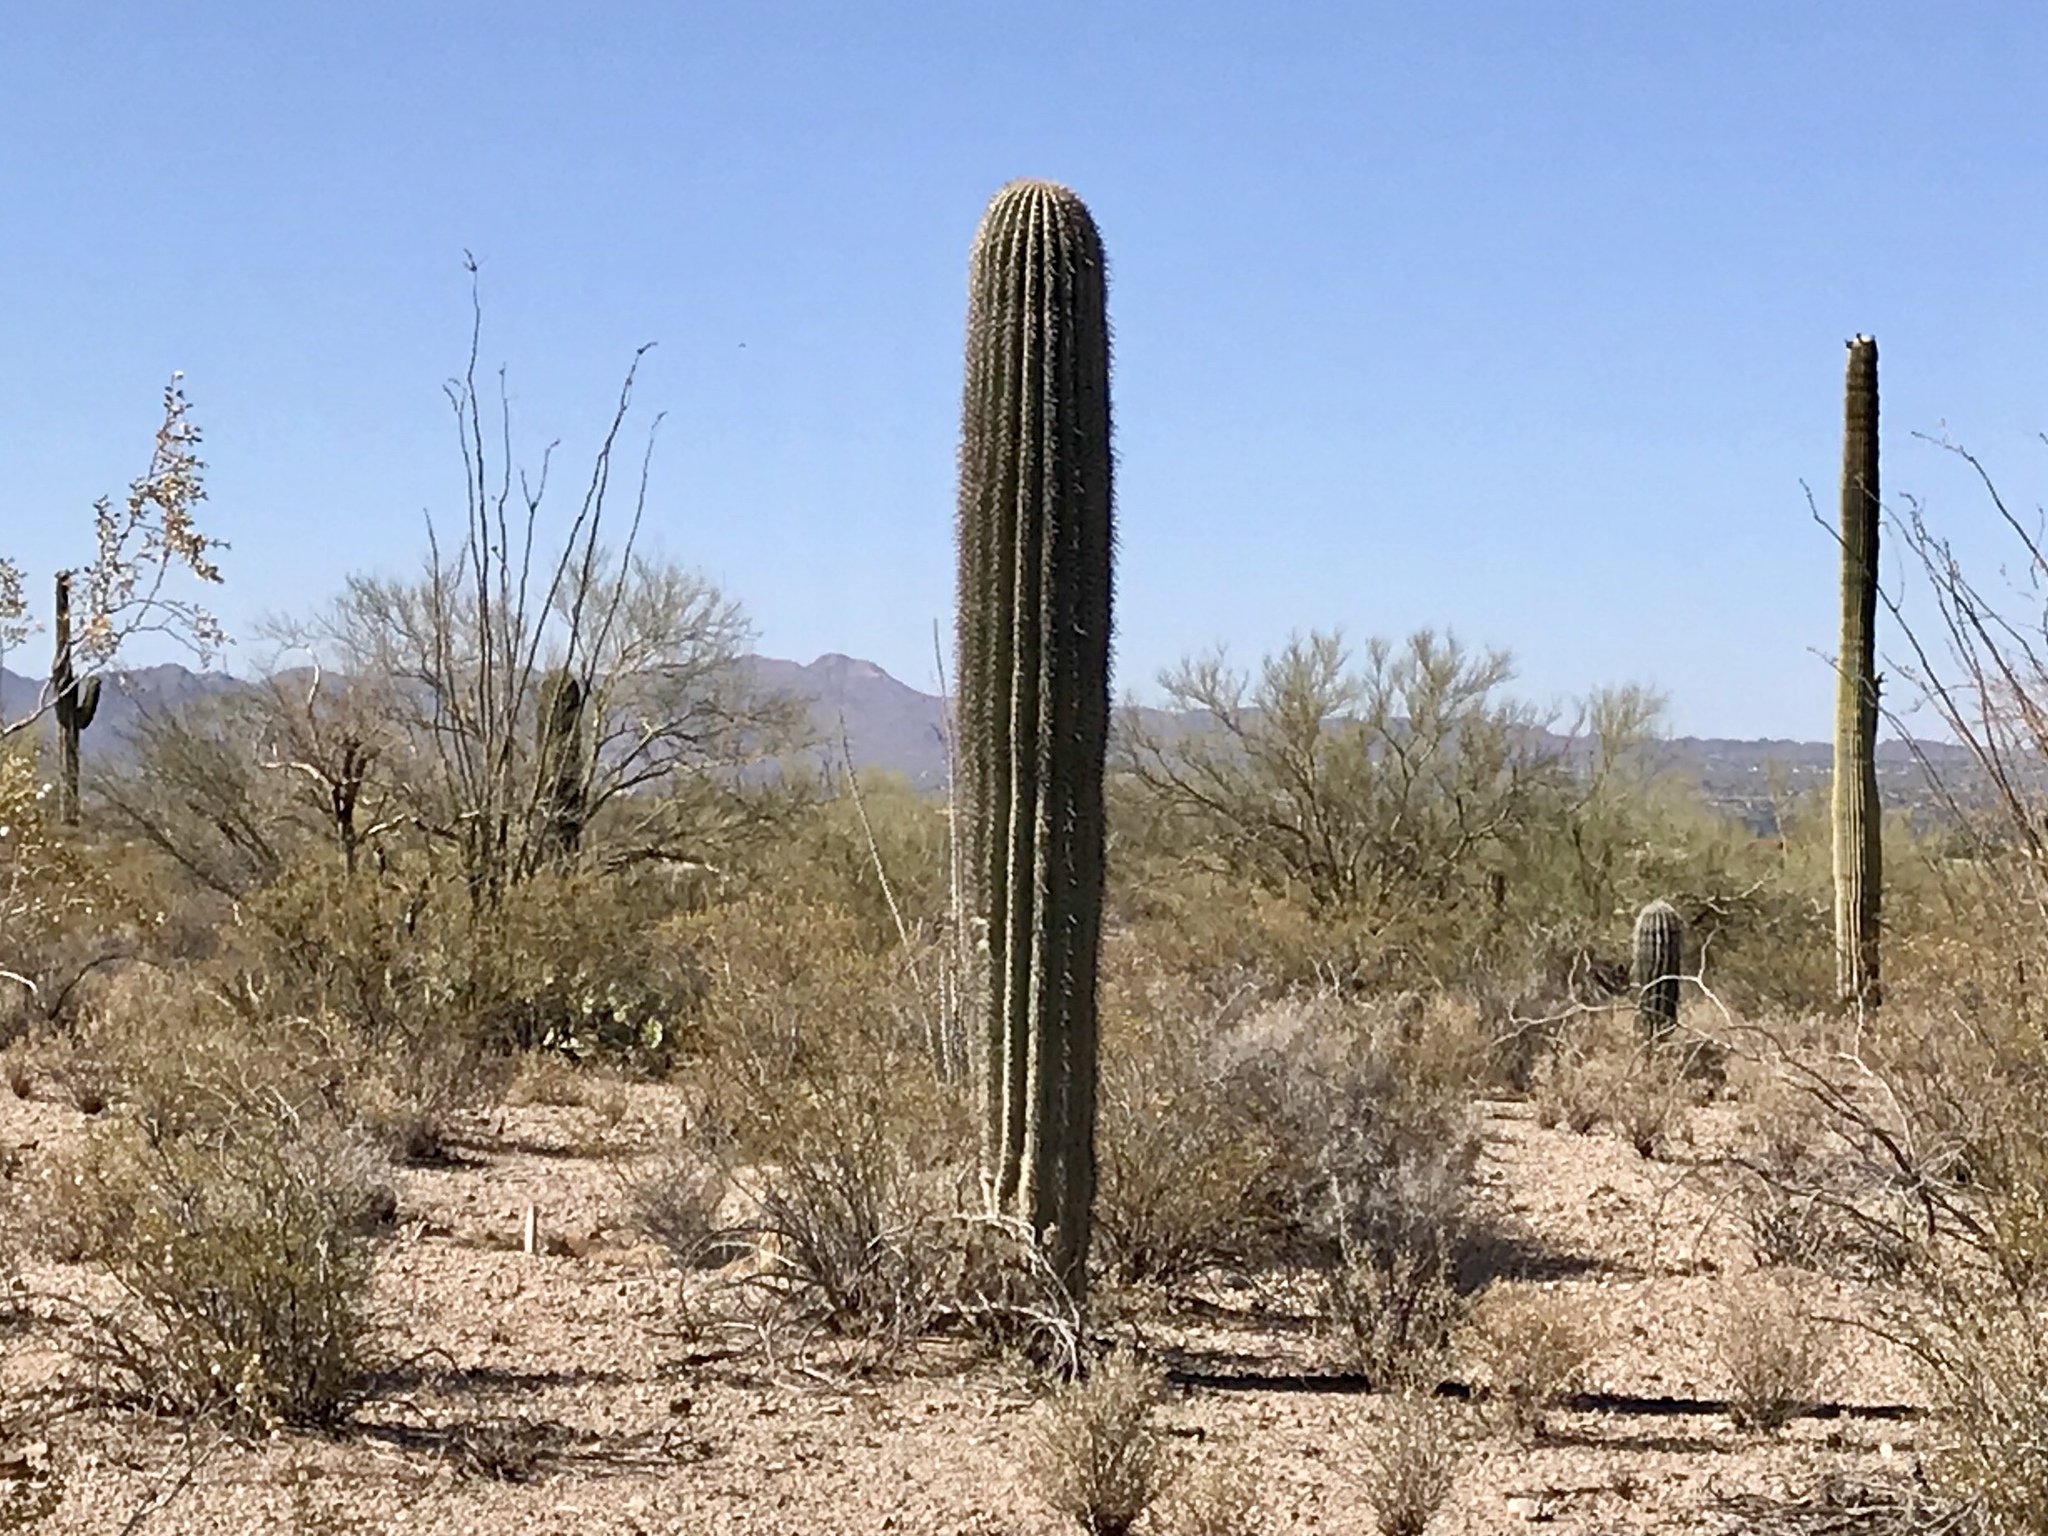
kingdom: Plantae
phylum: Tracheophyta
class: Magnoliopsida
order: Caryophyllales
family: Cactaceae
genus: Carnegiea
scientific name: Carnegiea gigantea
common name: Saguaro
